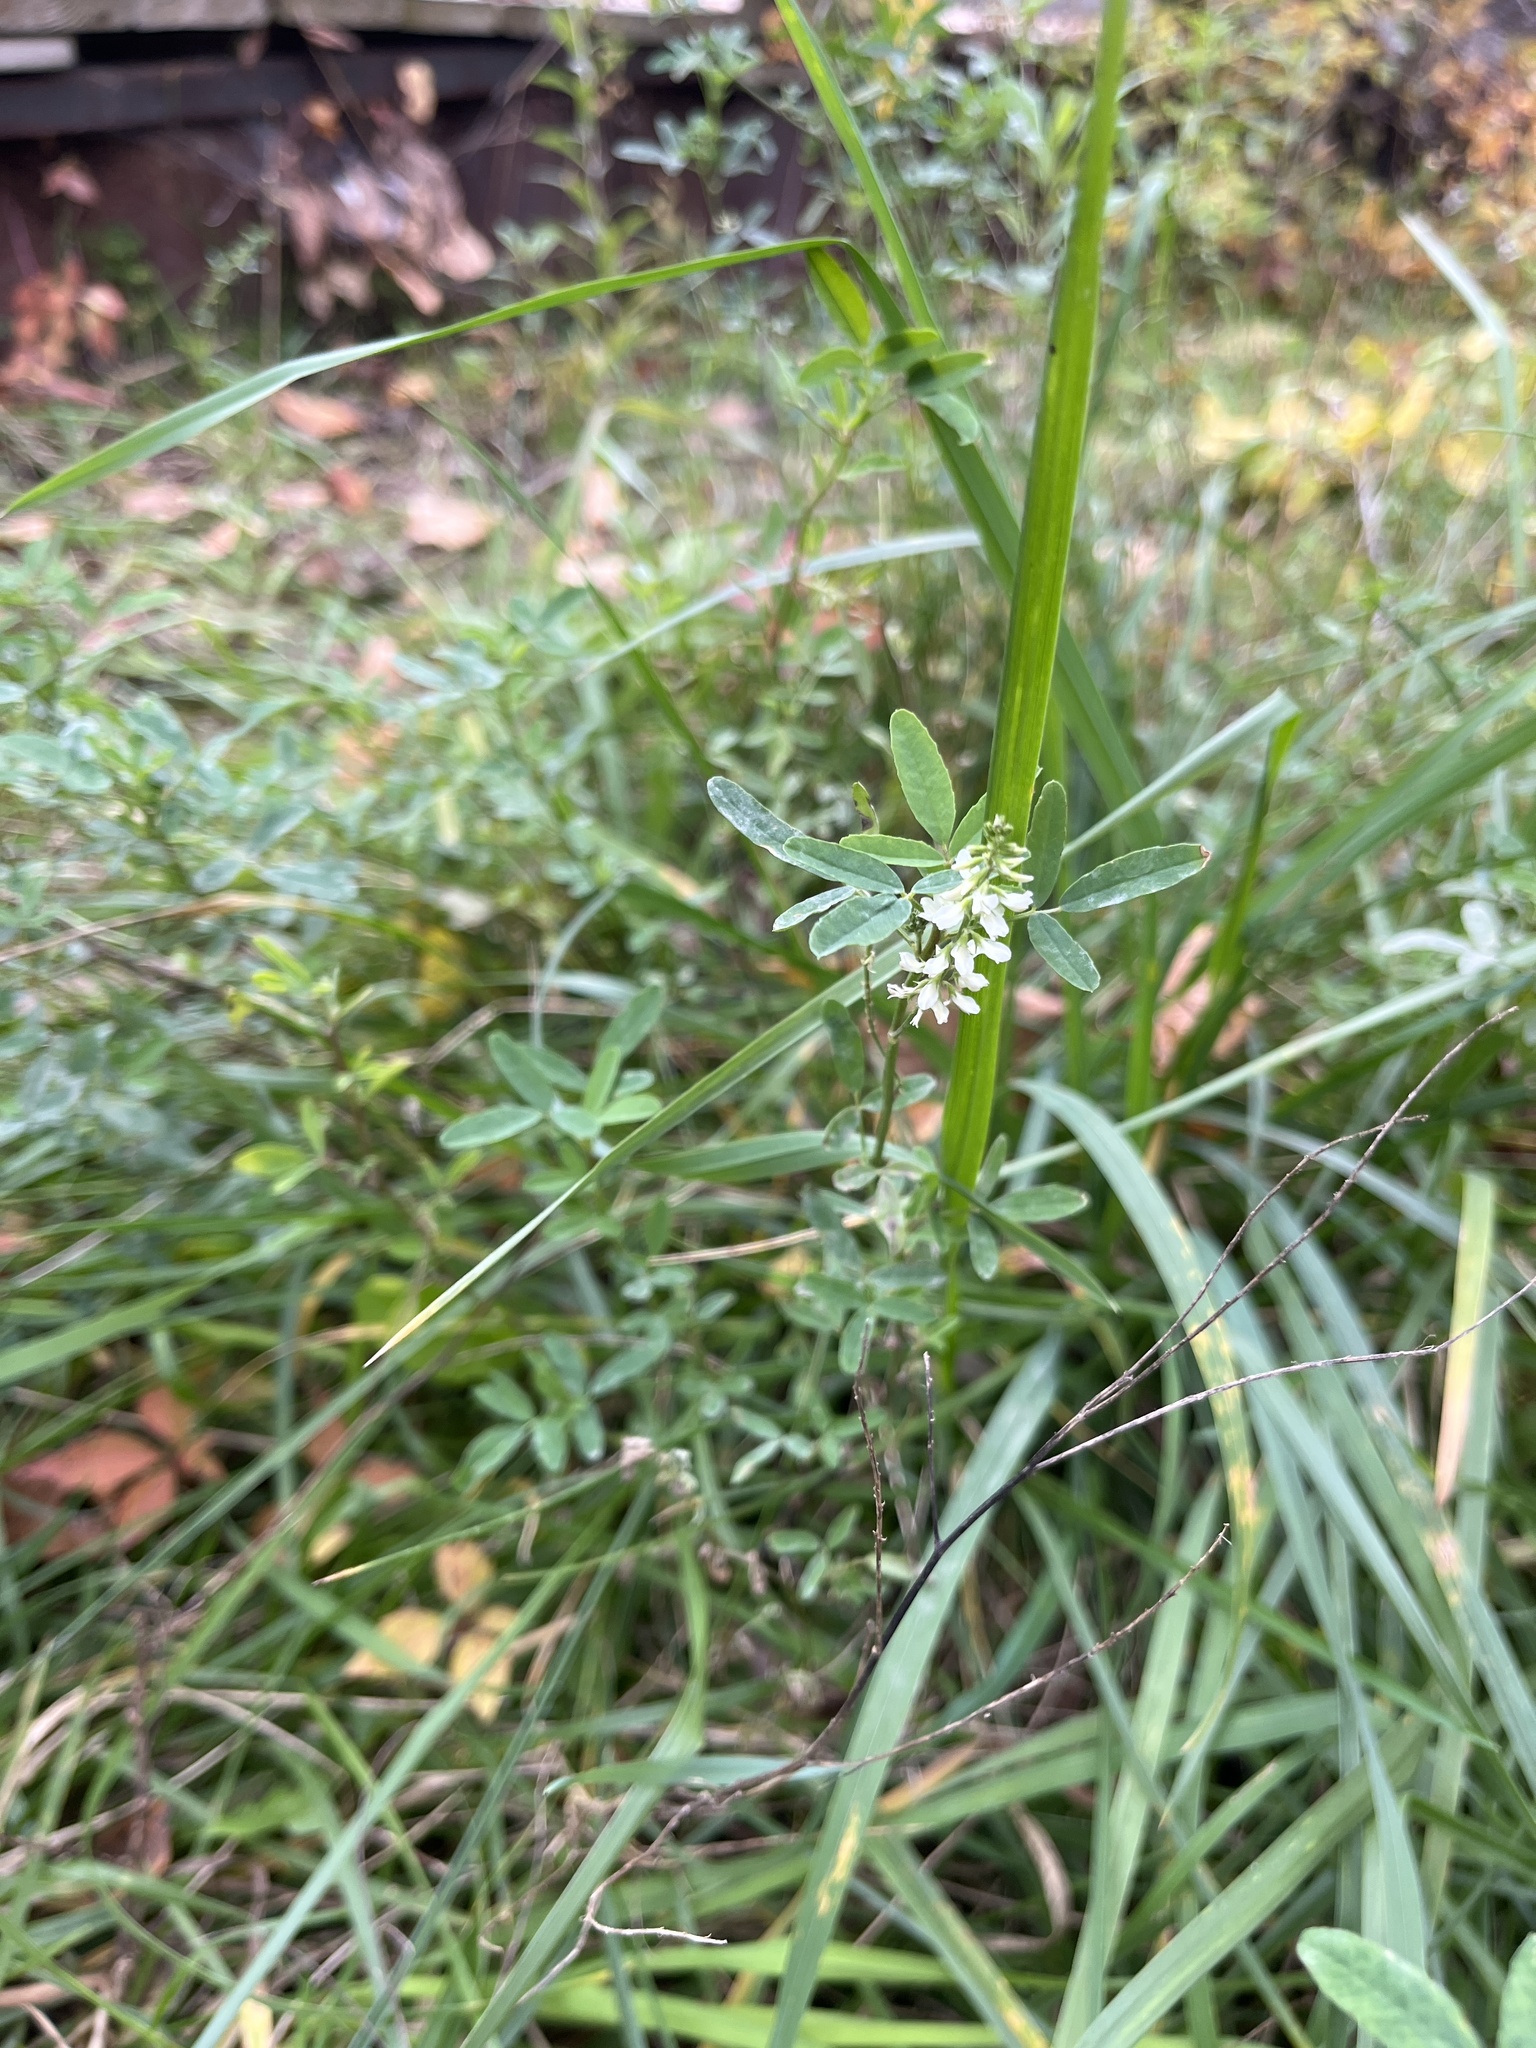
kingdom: Plantae
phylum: Tracheophyta
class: Magnoliopsida
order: Fabales
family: Fabaceae
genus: Melilotus
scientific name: Melilotus albus
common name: White melilot
